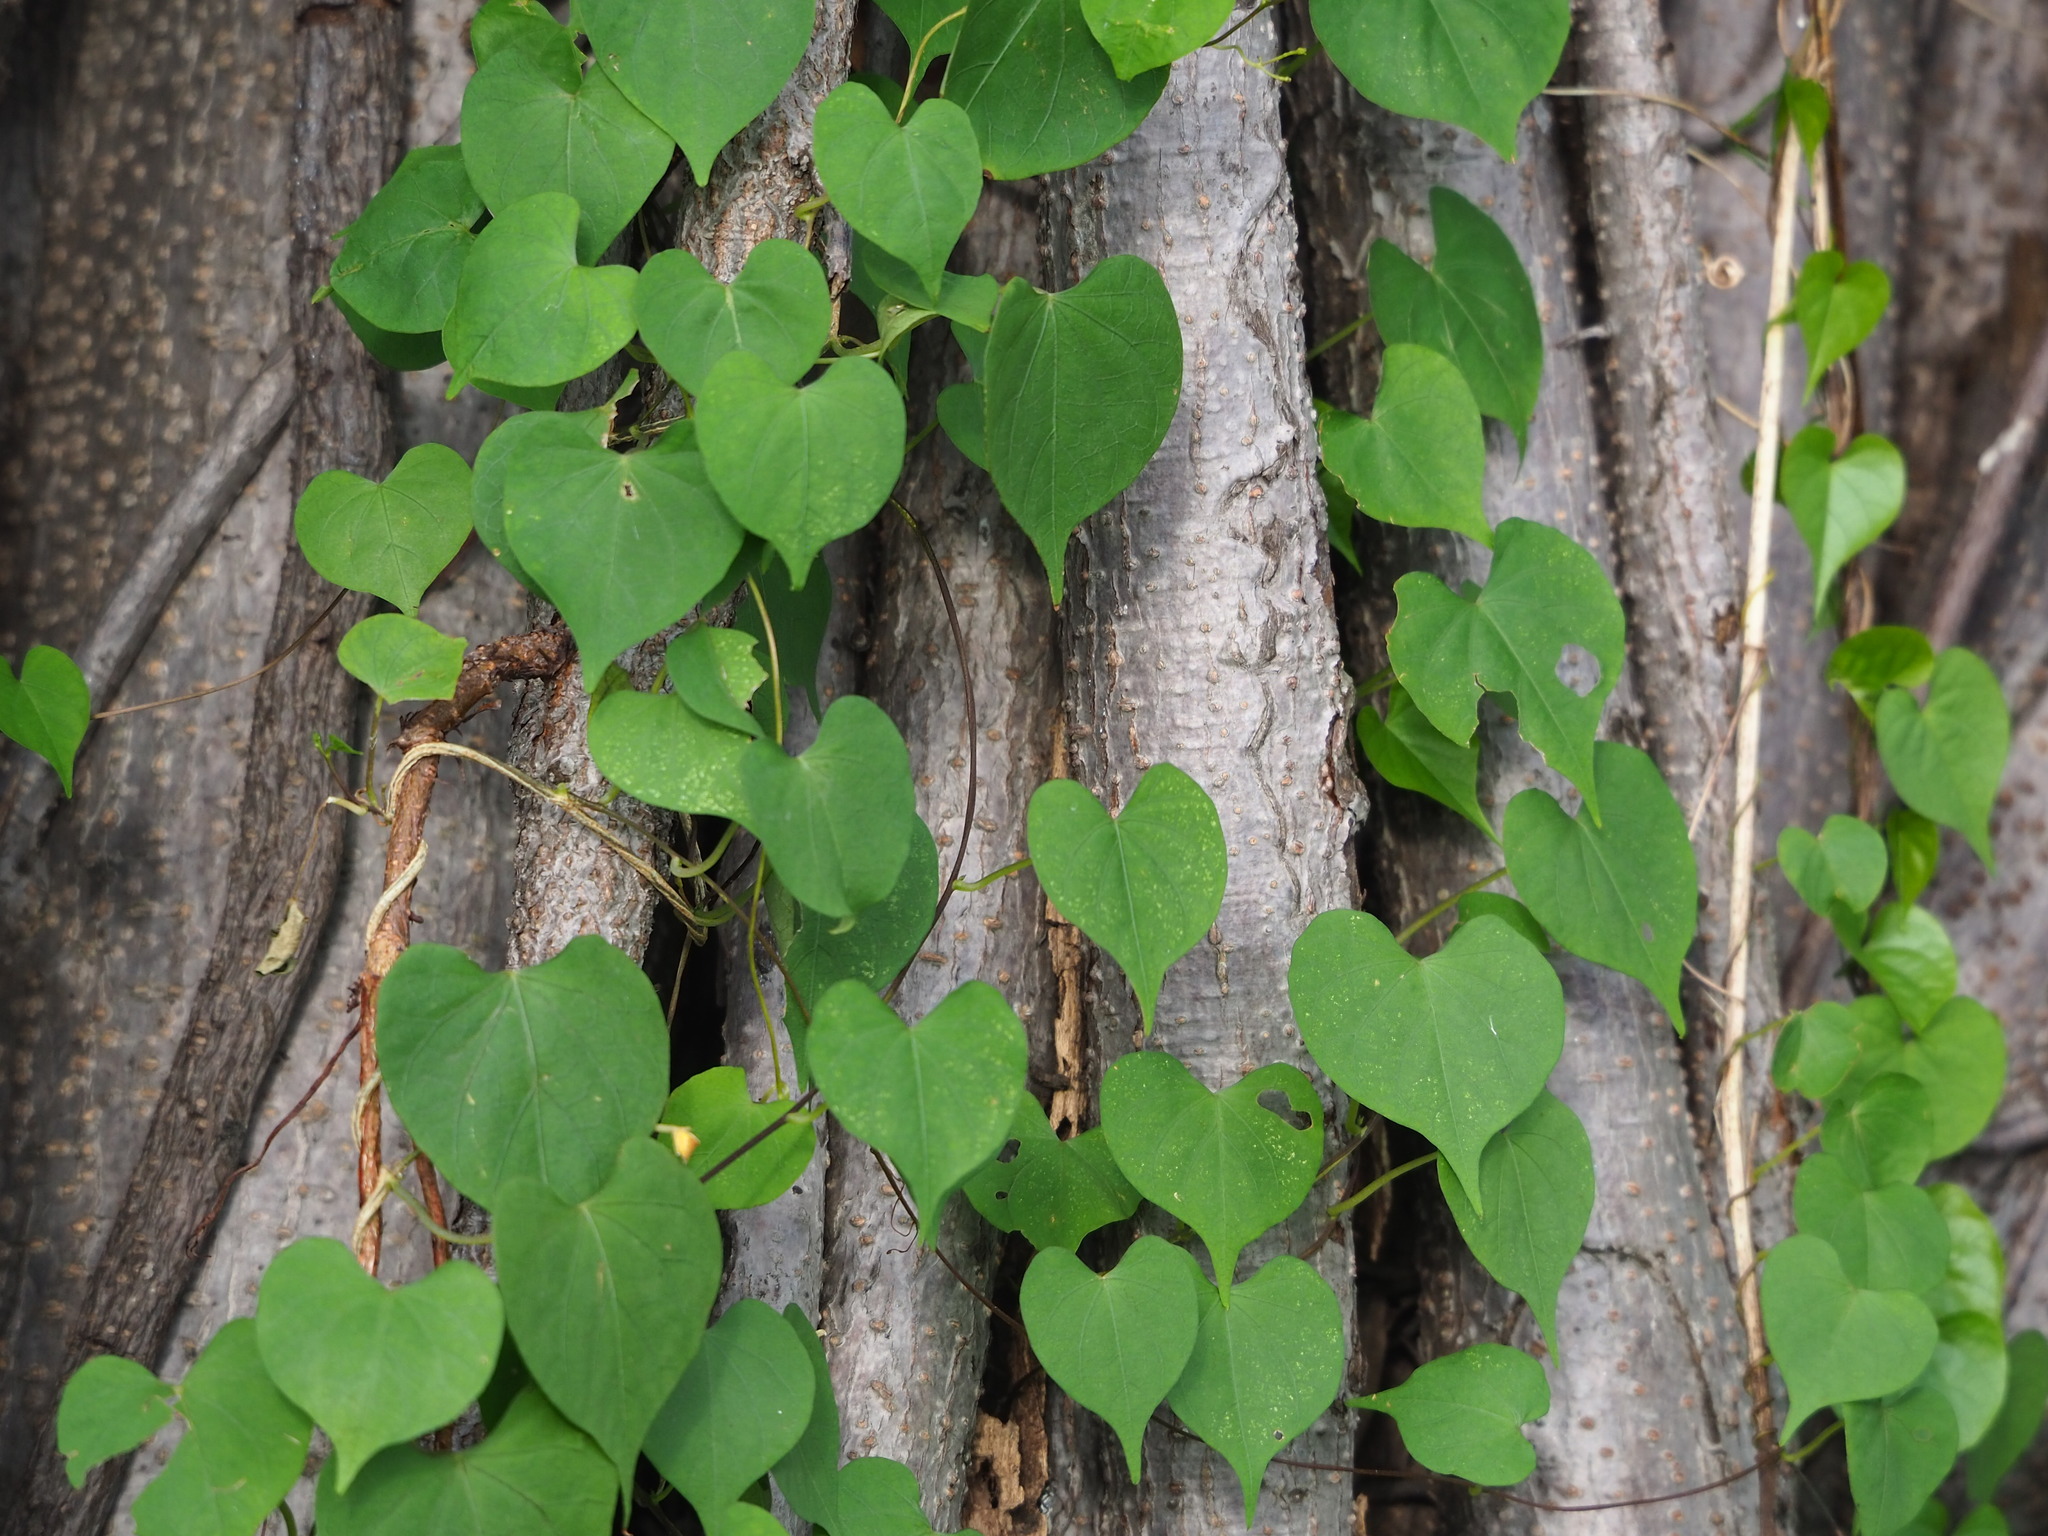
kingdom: Plantae
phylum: Tracheophyta
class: Magnoliopsida
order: Solanales
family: Convolvulaceae
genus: Ipomoea
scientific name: Ipomoea obscura
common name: Obscure morning-glory
